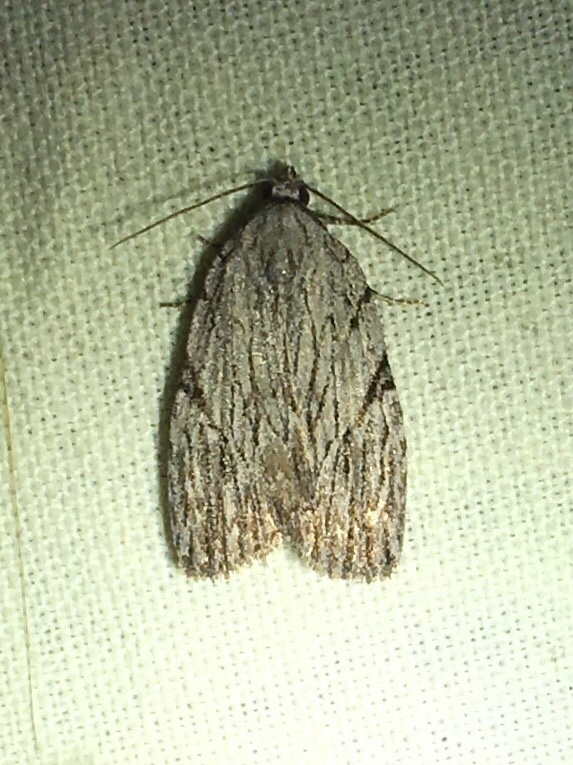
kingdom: Animalia
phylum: Arthropoda
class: Insecta
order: Lepidoptera
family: Noctuidae
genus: Balsa
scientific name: Balsa tristrigella
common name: Three-lined balsa moth
